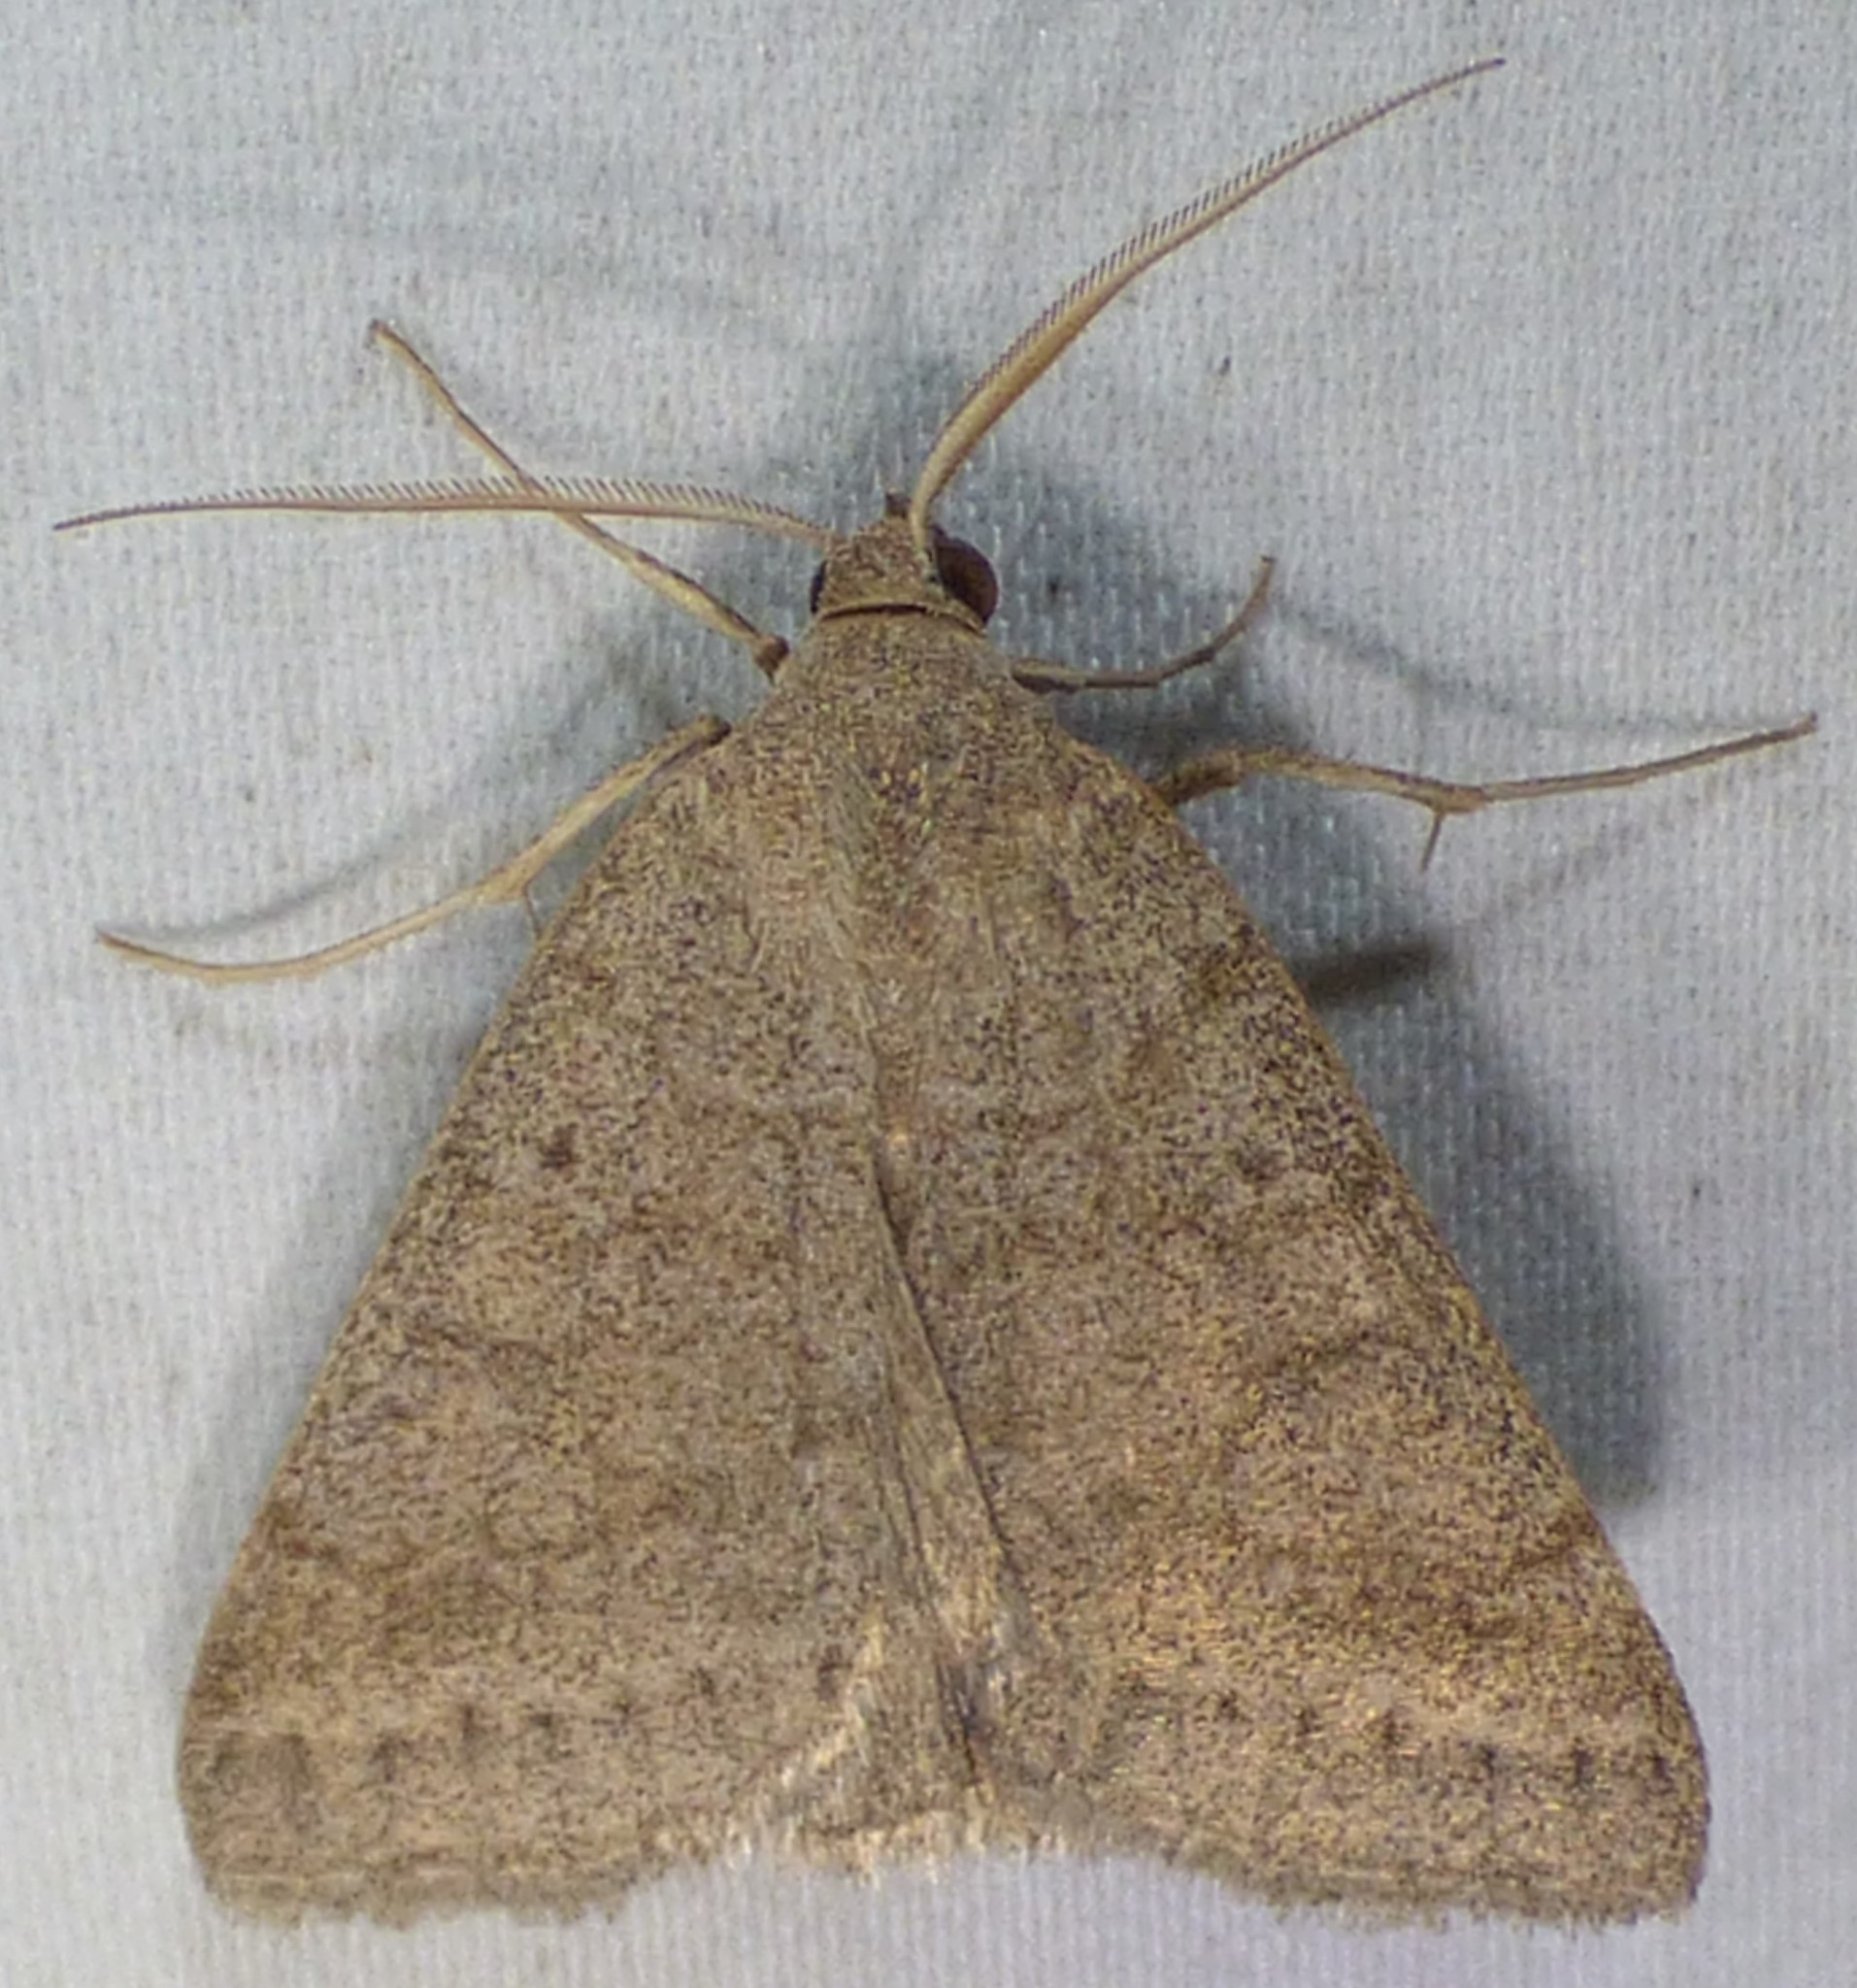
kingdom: Animalia
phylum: Arthropoda
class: Insecta
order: Lepidoptera
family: Erebidae
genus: Caenurgia
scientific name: Caenurgia chloropha
